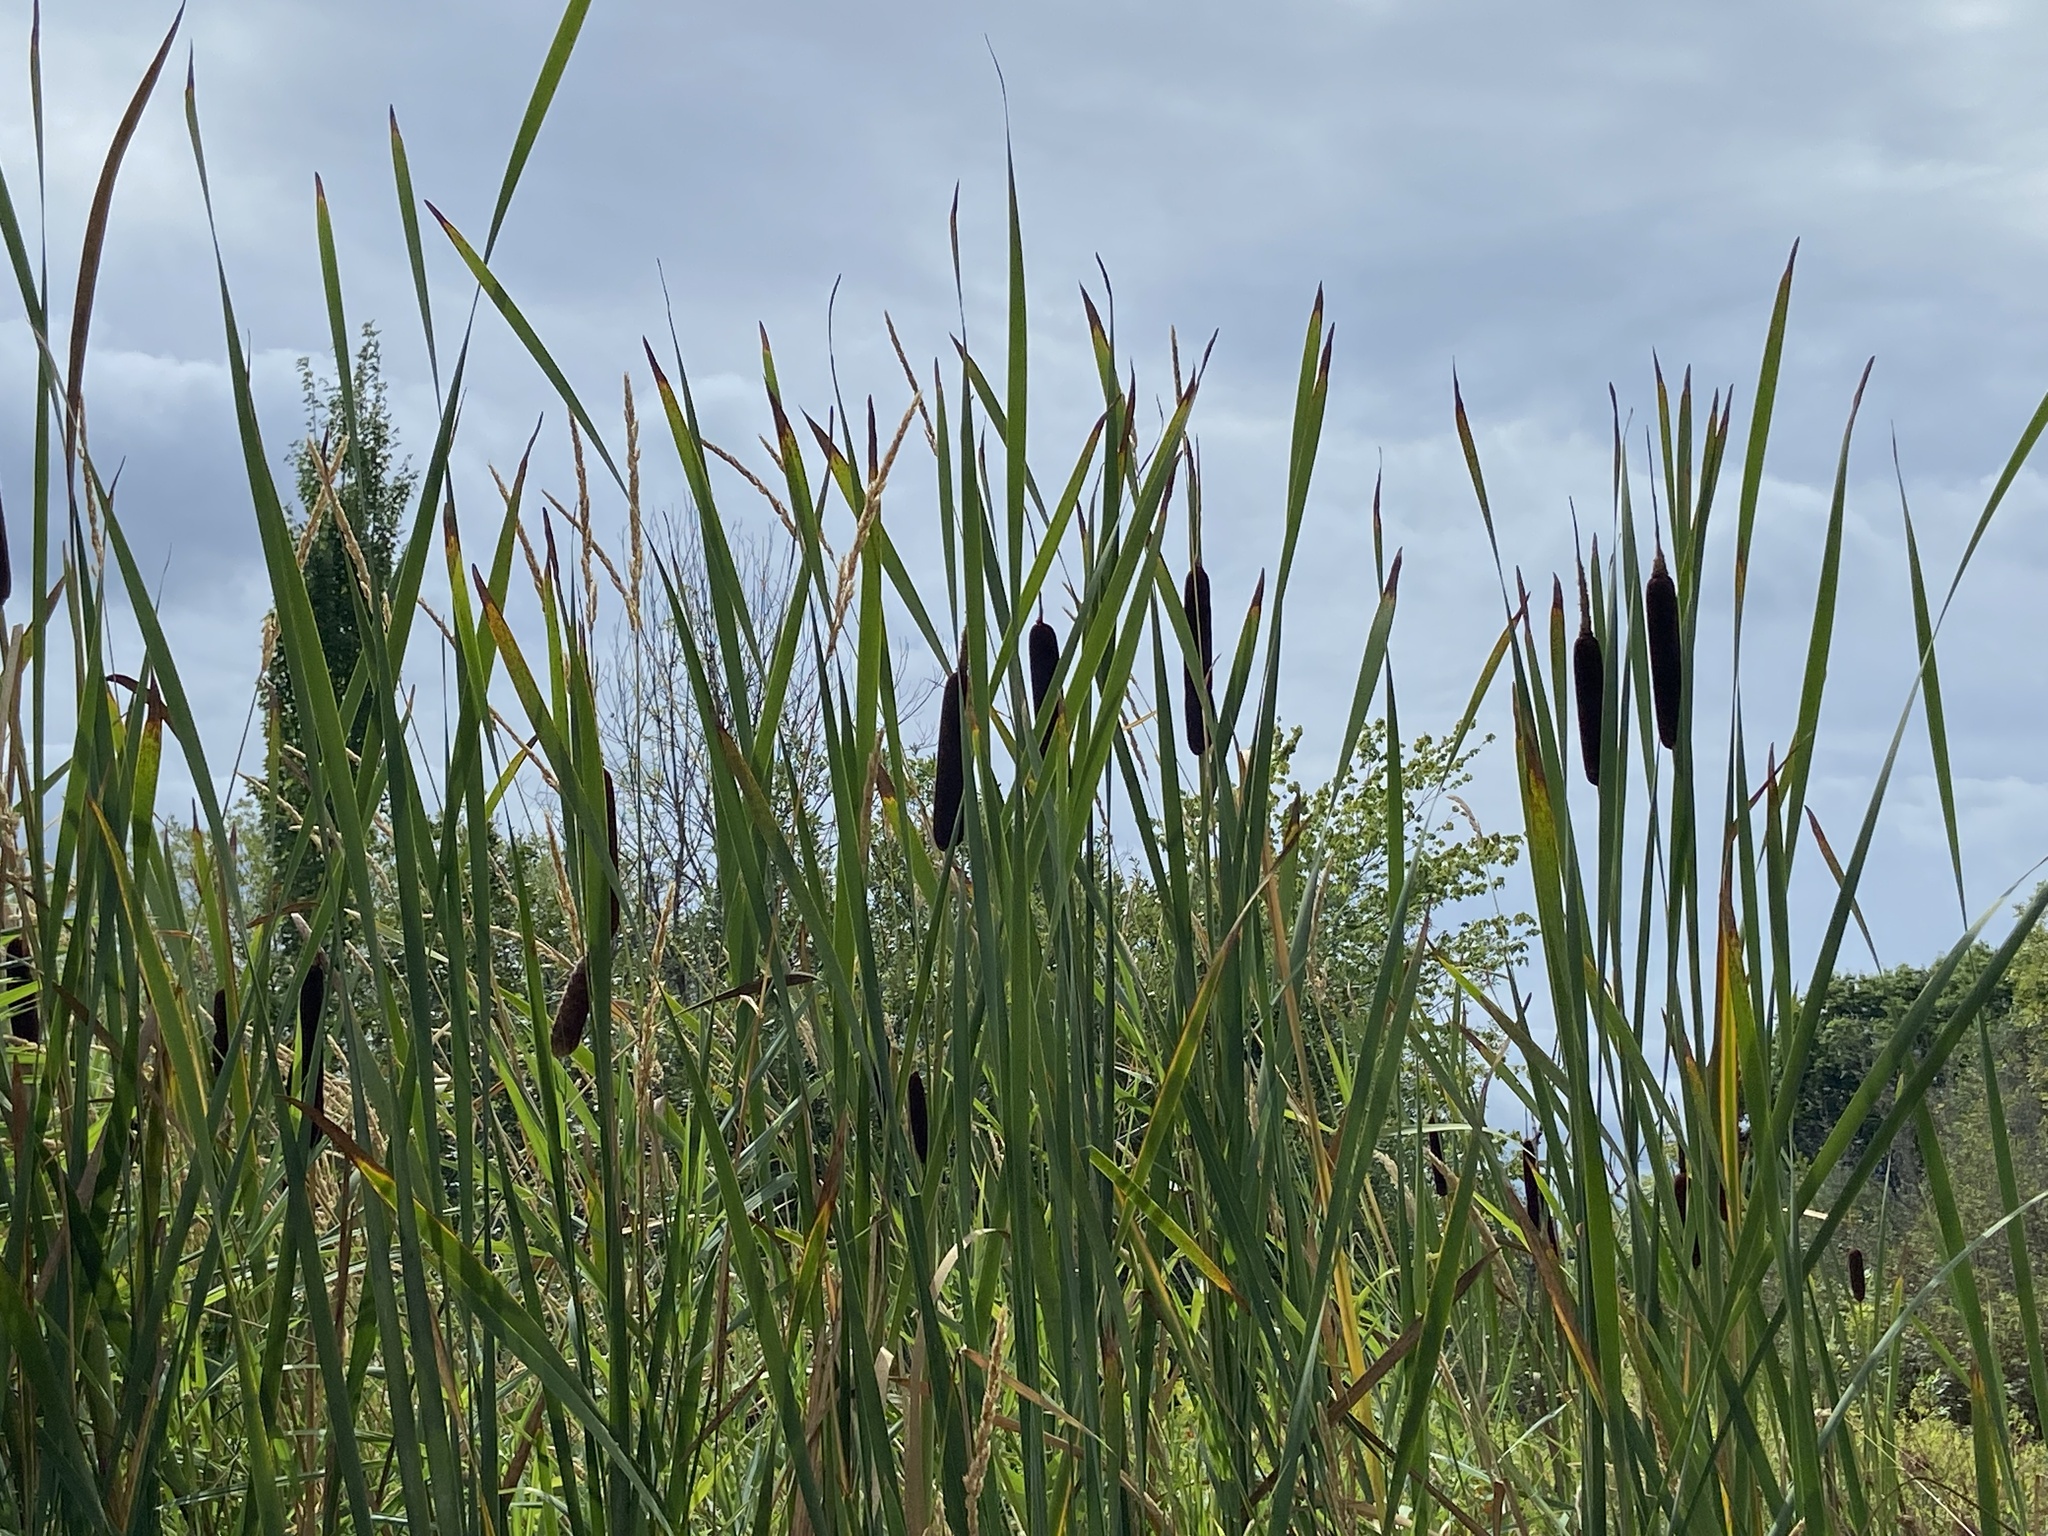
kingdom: Plantae
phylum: Tracheophyta
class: Liliopsida
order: Poales
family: Typhaceae
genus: Typha
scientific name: Typha latifolia
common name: Broadleaf cattail
